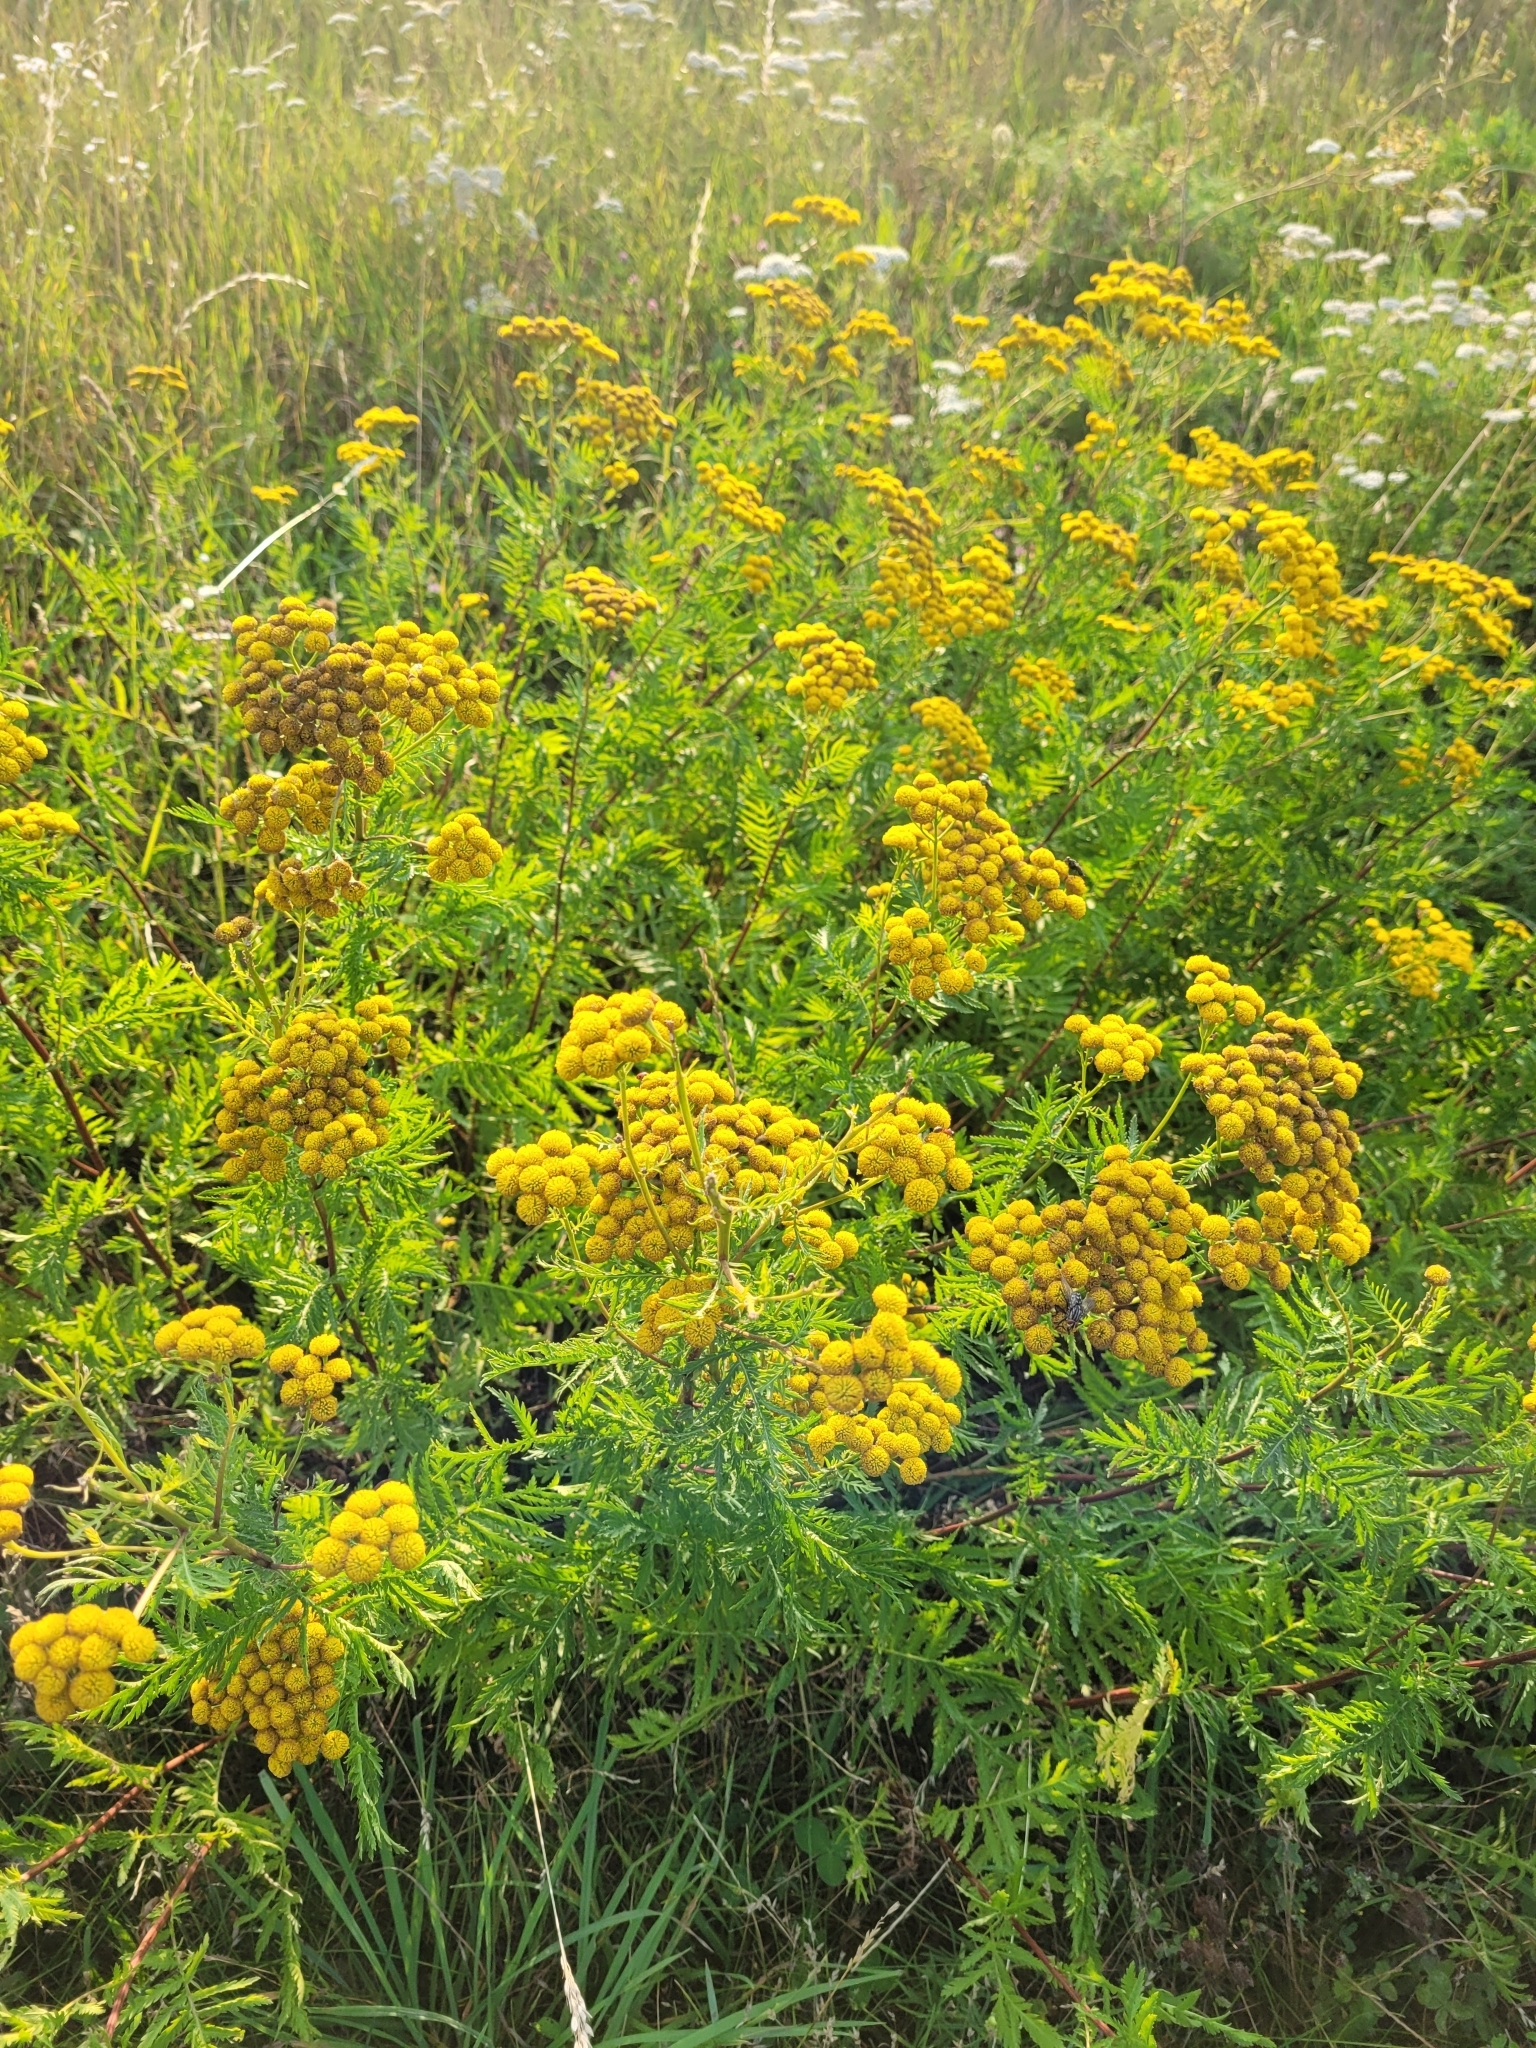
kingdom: Plantae
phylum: Tracheophyta
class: Magnoliopsida
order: Asterales
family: Asteraceae
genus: Tanacetum
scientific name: Tanacetum vulgare
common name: Common tansy
